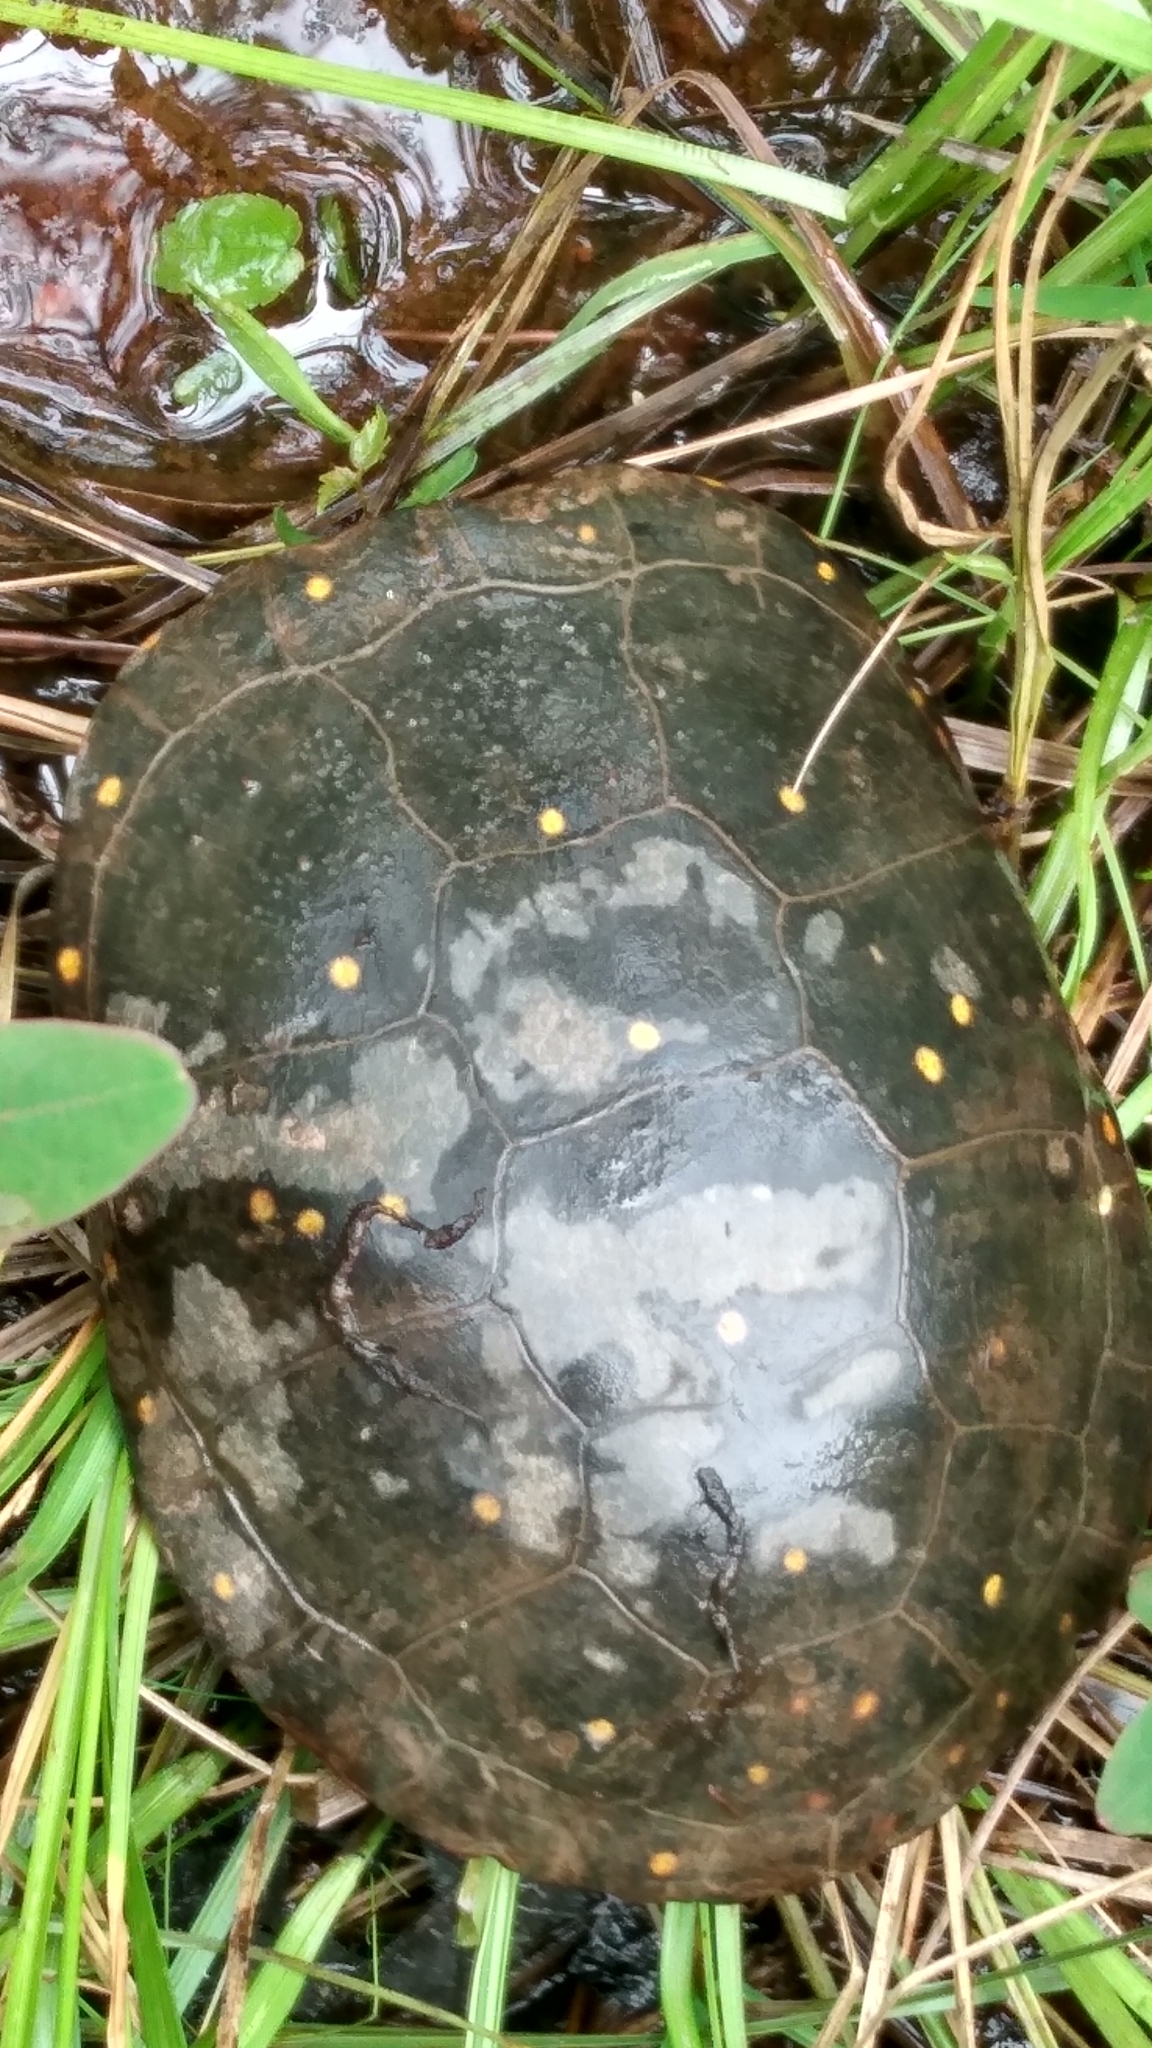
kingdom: Animalia
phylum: Chordata
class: Testudines
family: Emydidae
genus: Clemmys
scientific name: Clemmys guttata
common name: Spotted turtle
